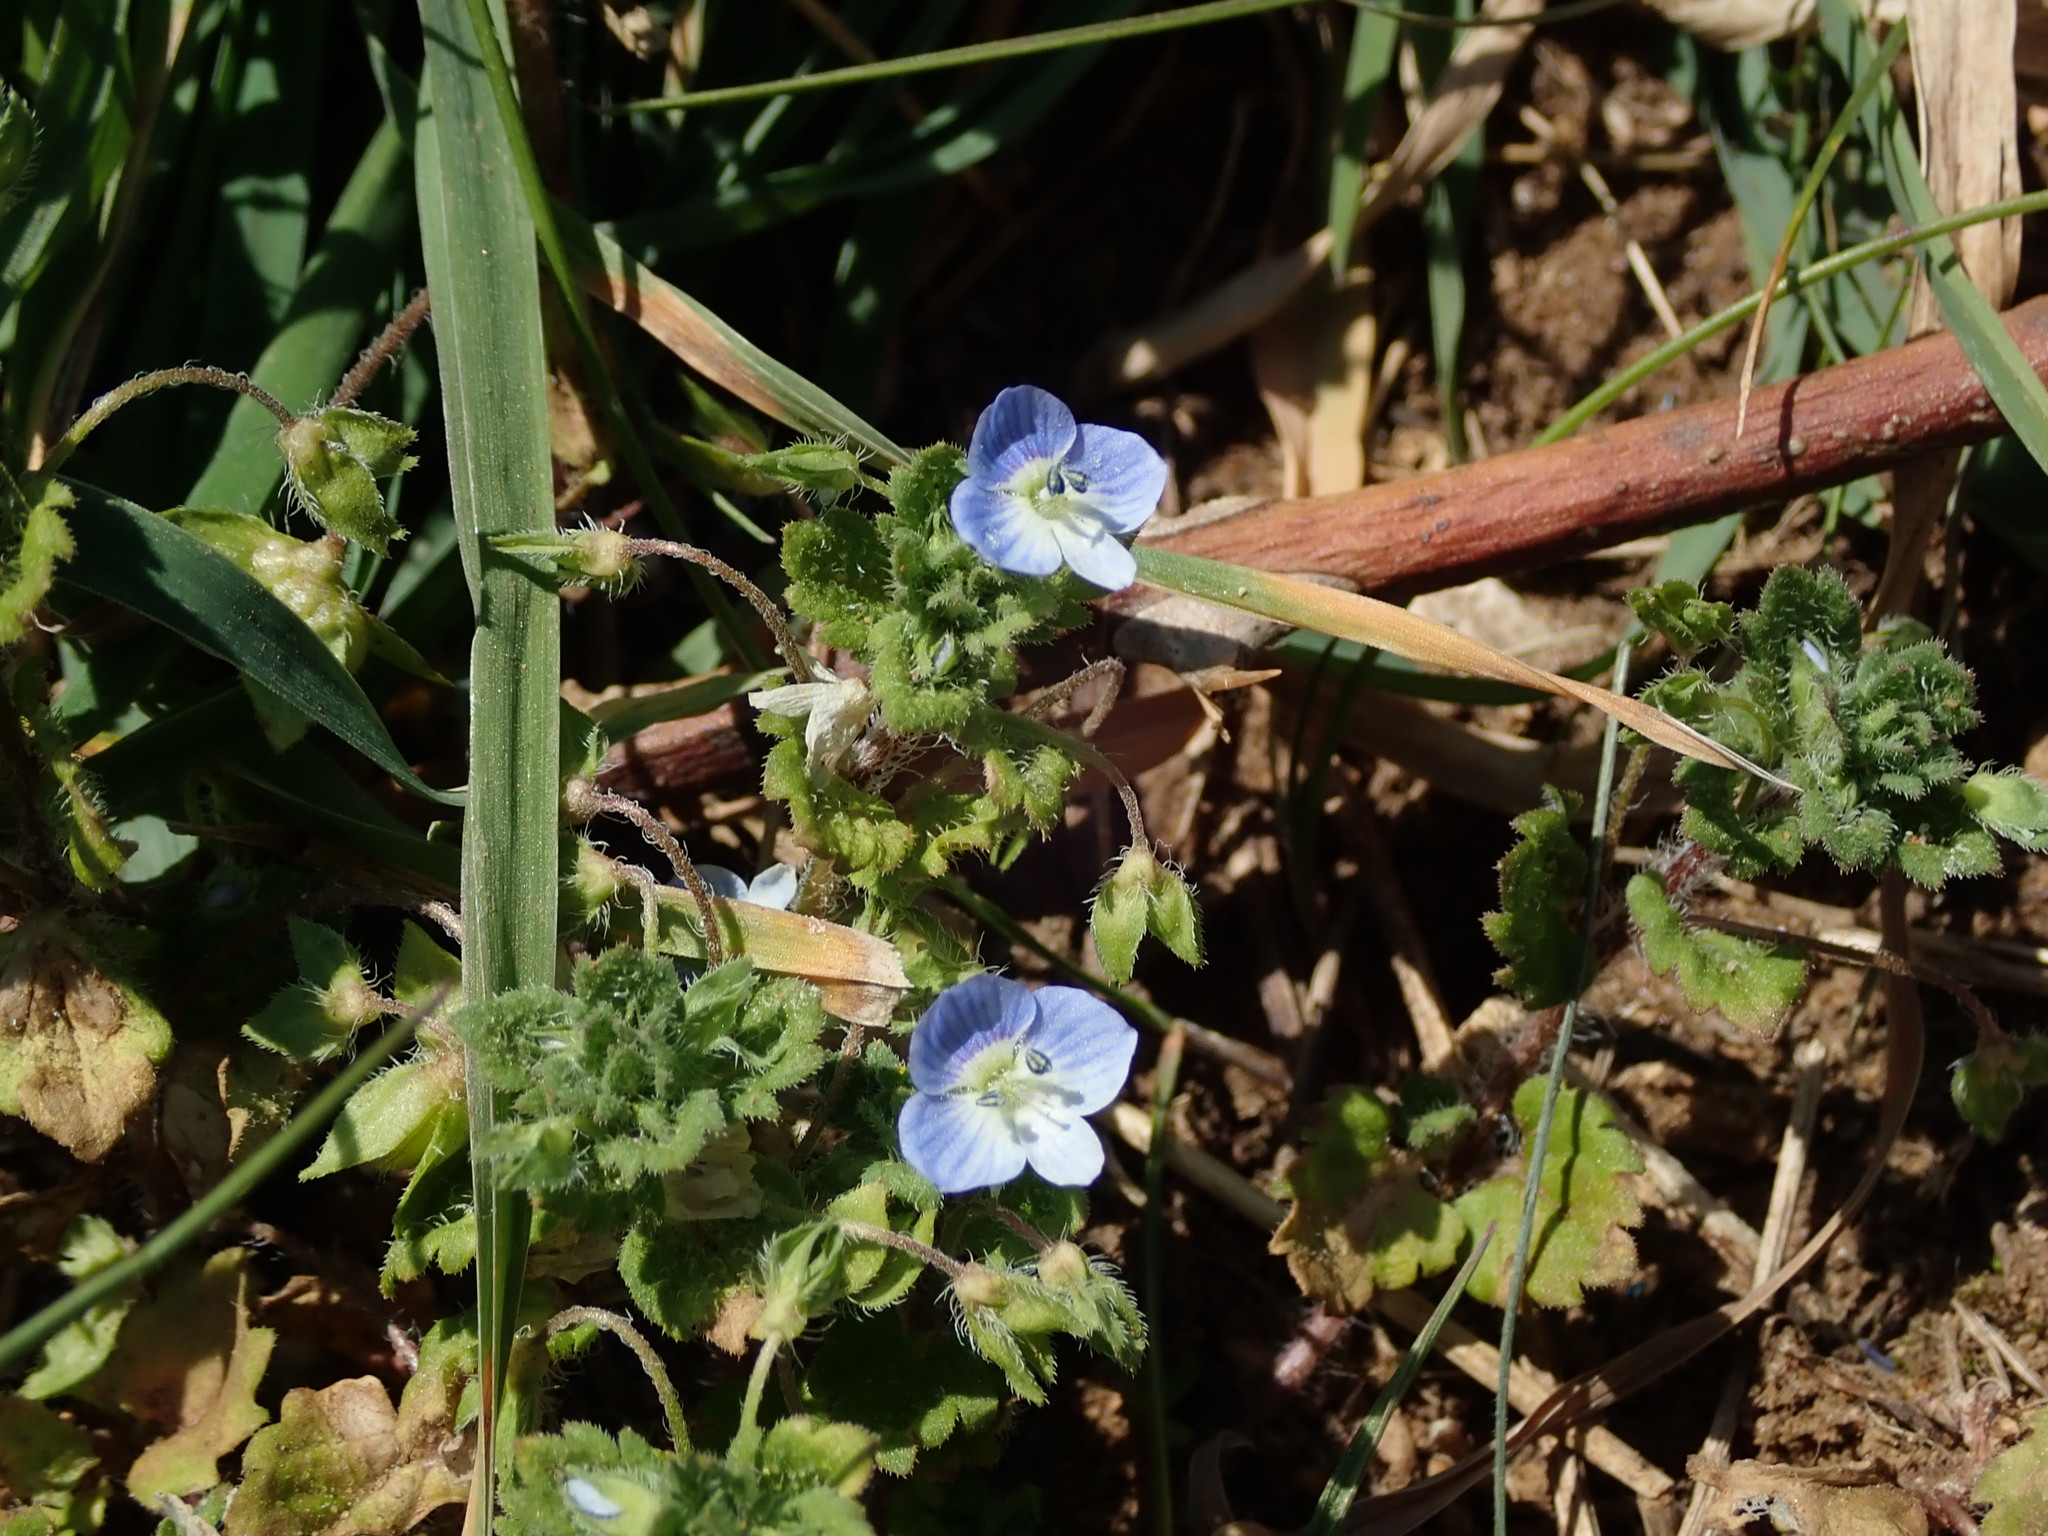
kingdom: Plantae
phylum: Tracheophyta
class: Magnoliopsida
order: Lamiales
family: Plantaginaceae
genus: Veronica
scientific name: Veronica persica
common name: Common field-speedwell
